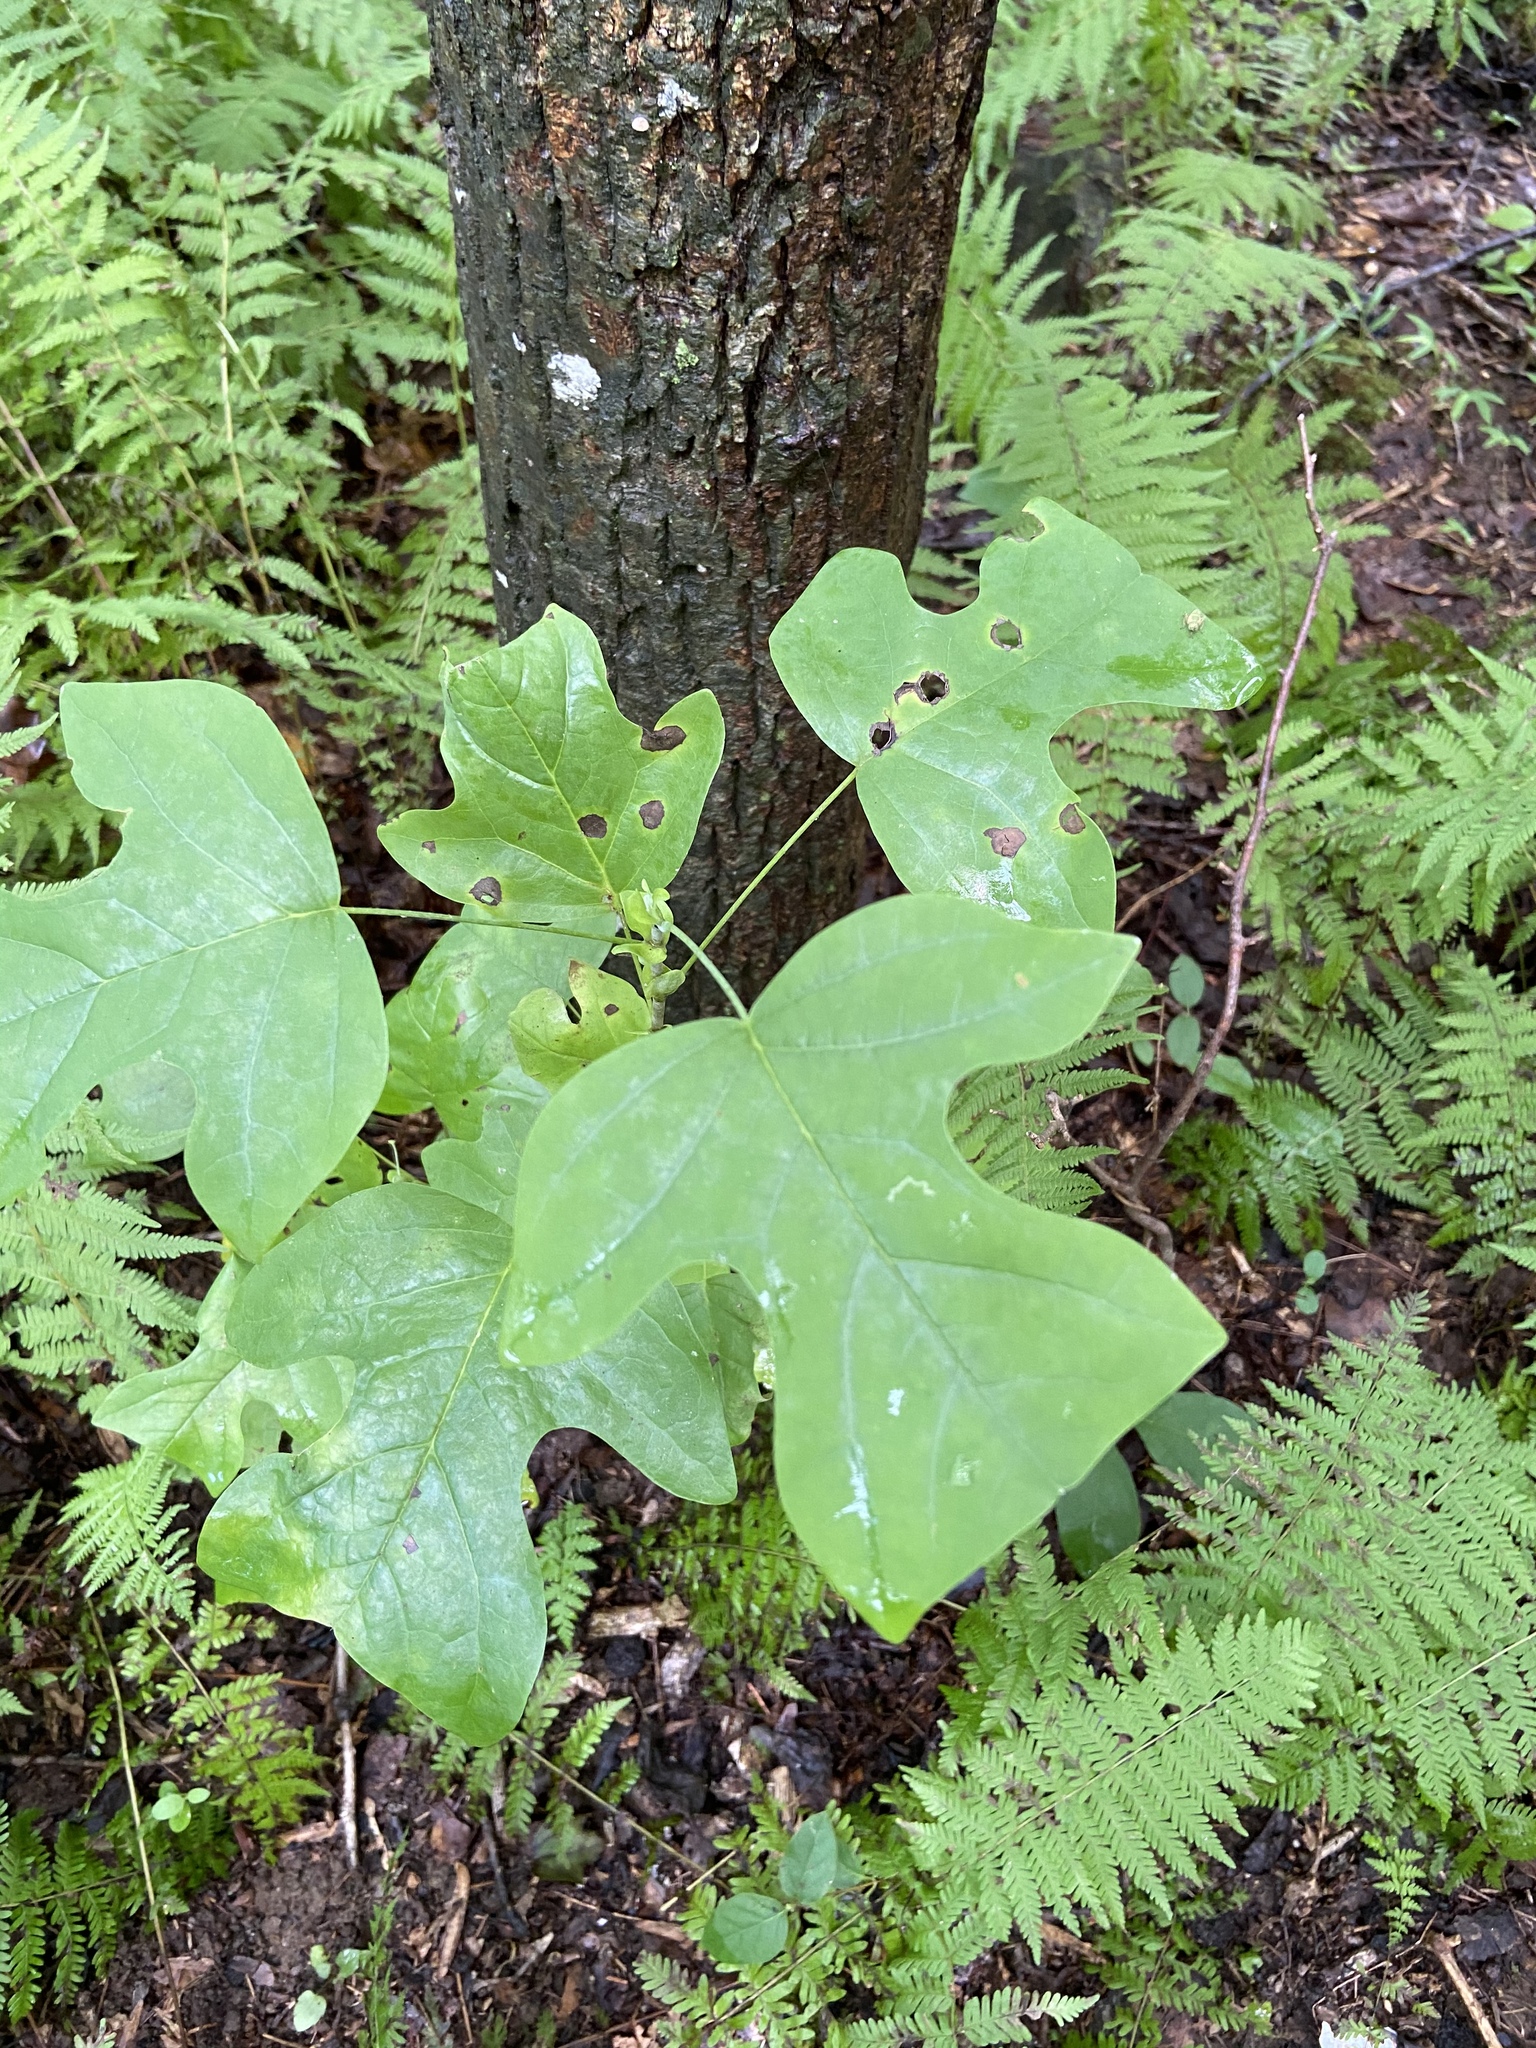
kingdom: Plantae
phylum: Tracheophyta
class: Magnoliopsida
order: Magnoliales
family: Magnoliaceae
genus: Liriodendron
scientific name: Liriodendron tulipifera
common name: Tulip tree
